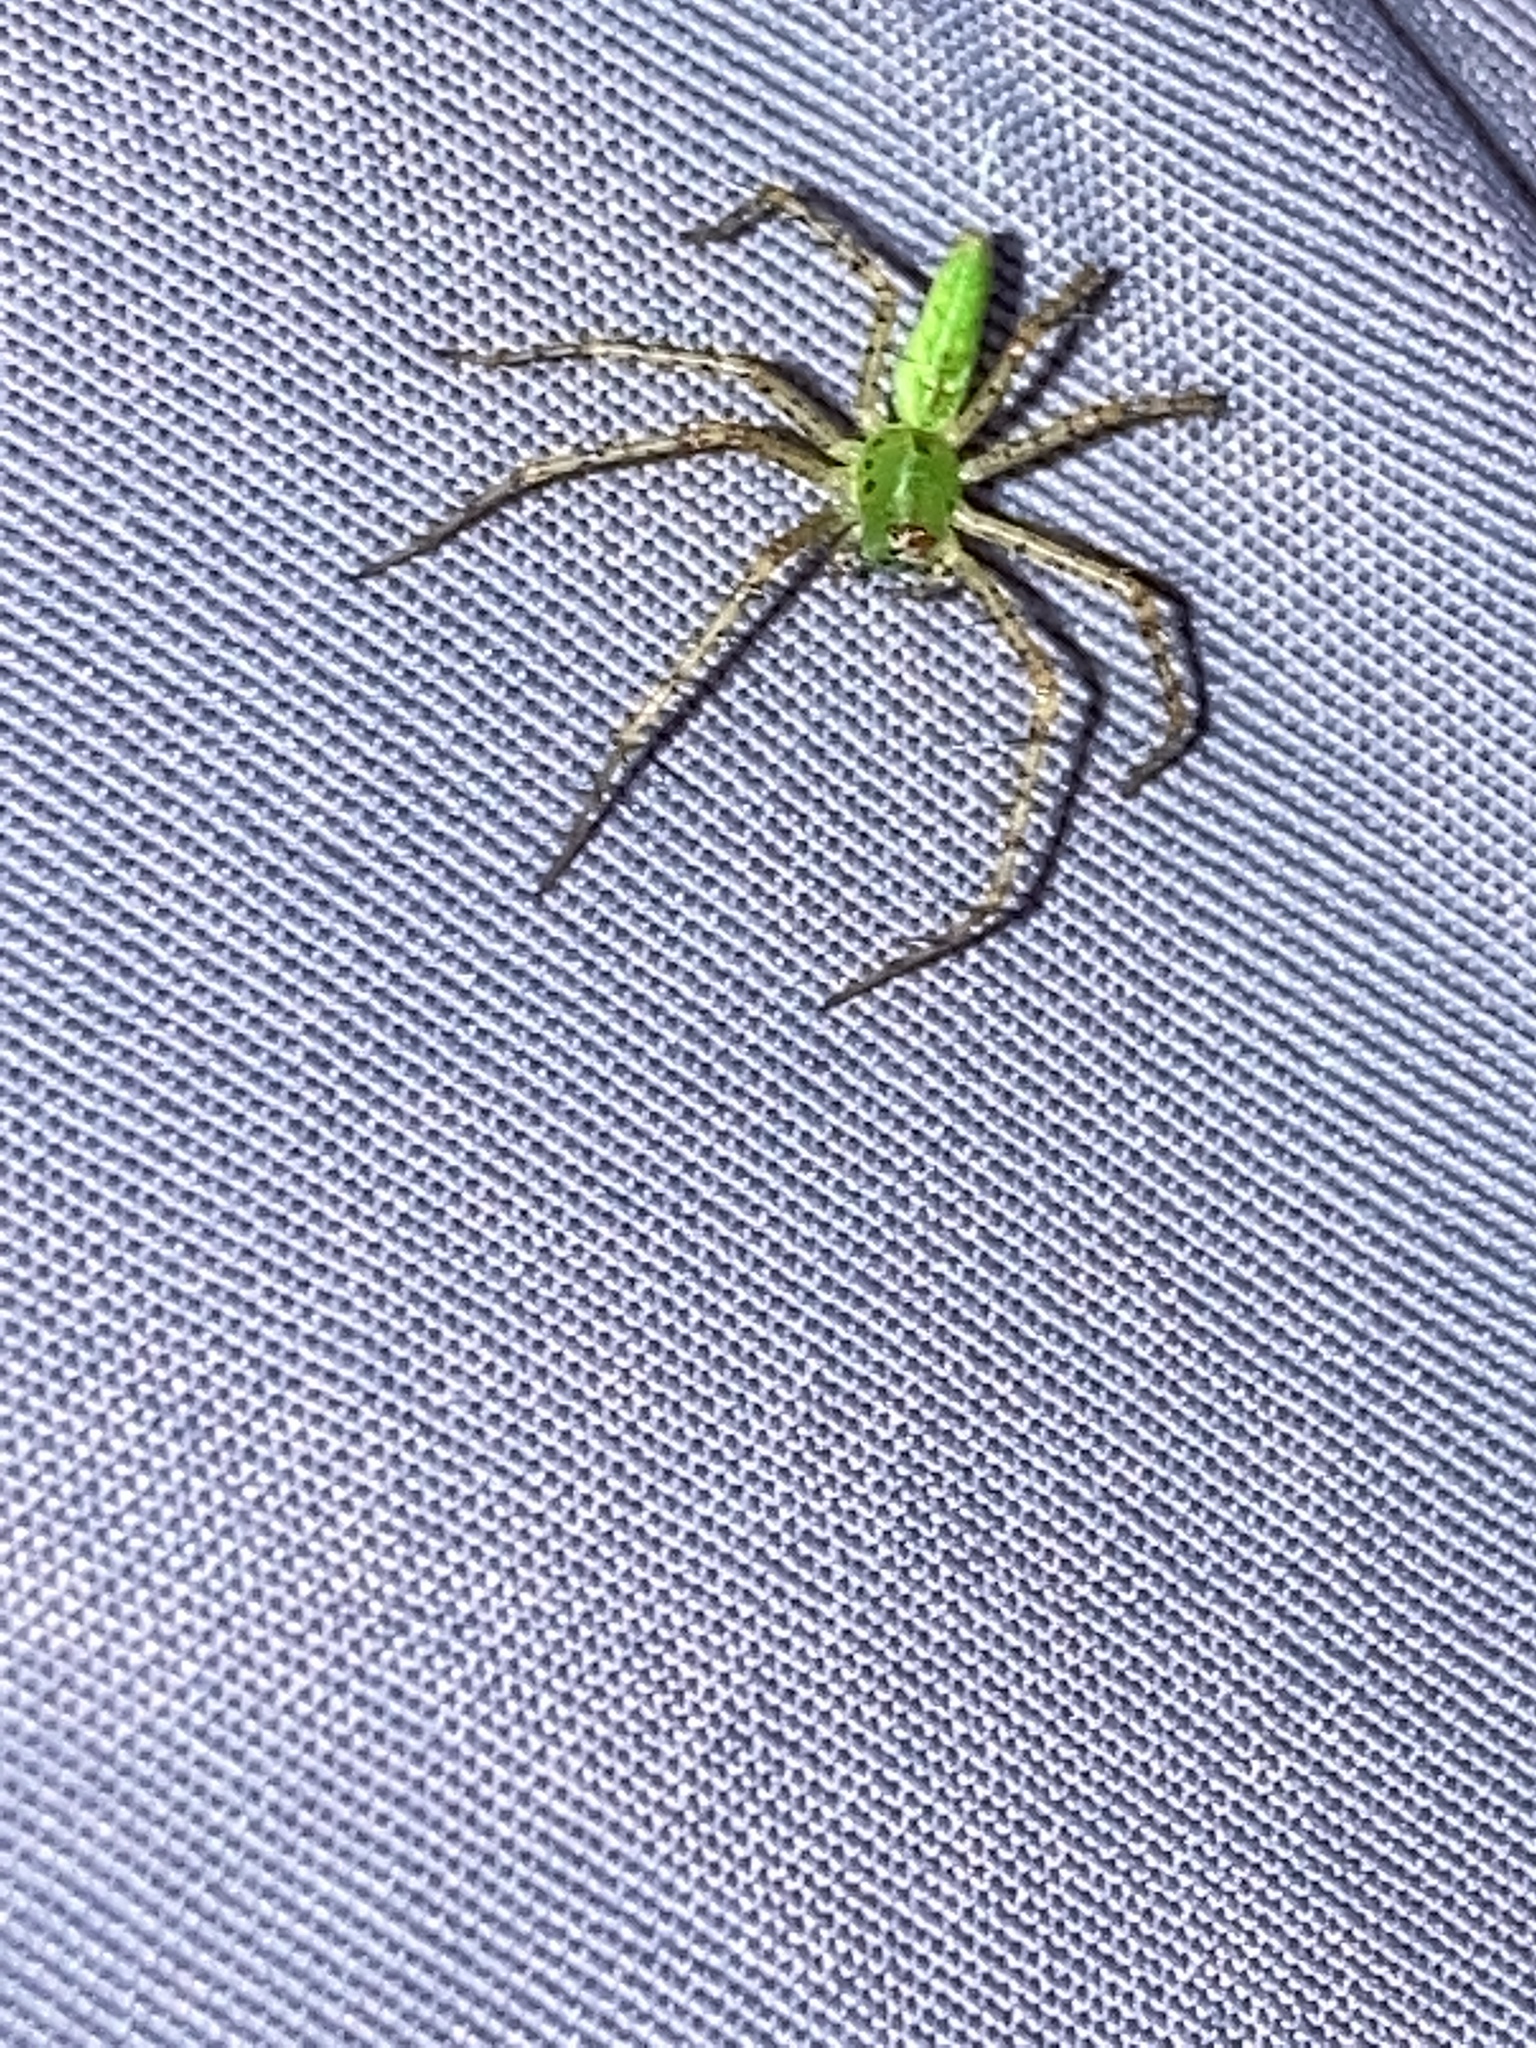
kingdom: Animalia
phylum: Arthropoda
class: Arachnida
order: Araneae
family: Oxyopidae
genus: Peucetia
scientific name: Peucetia viridans
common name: Lynx spiders
